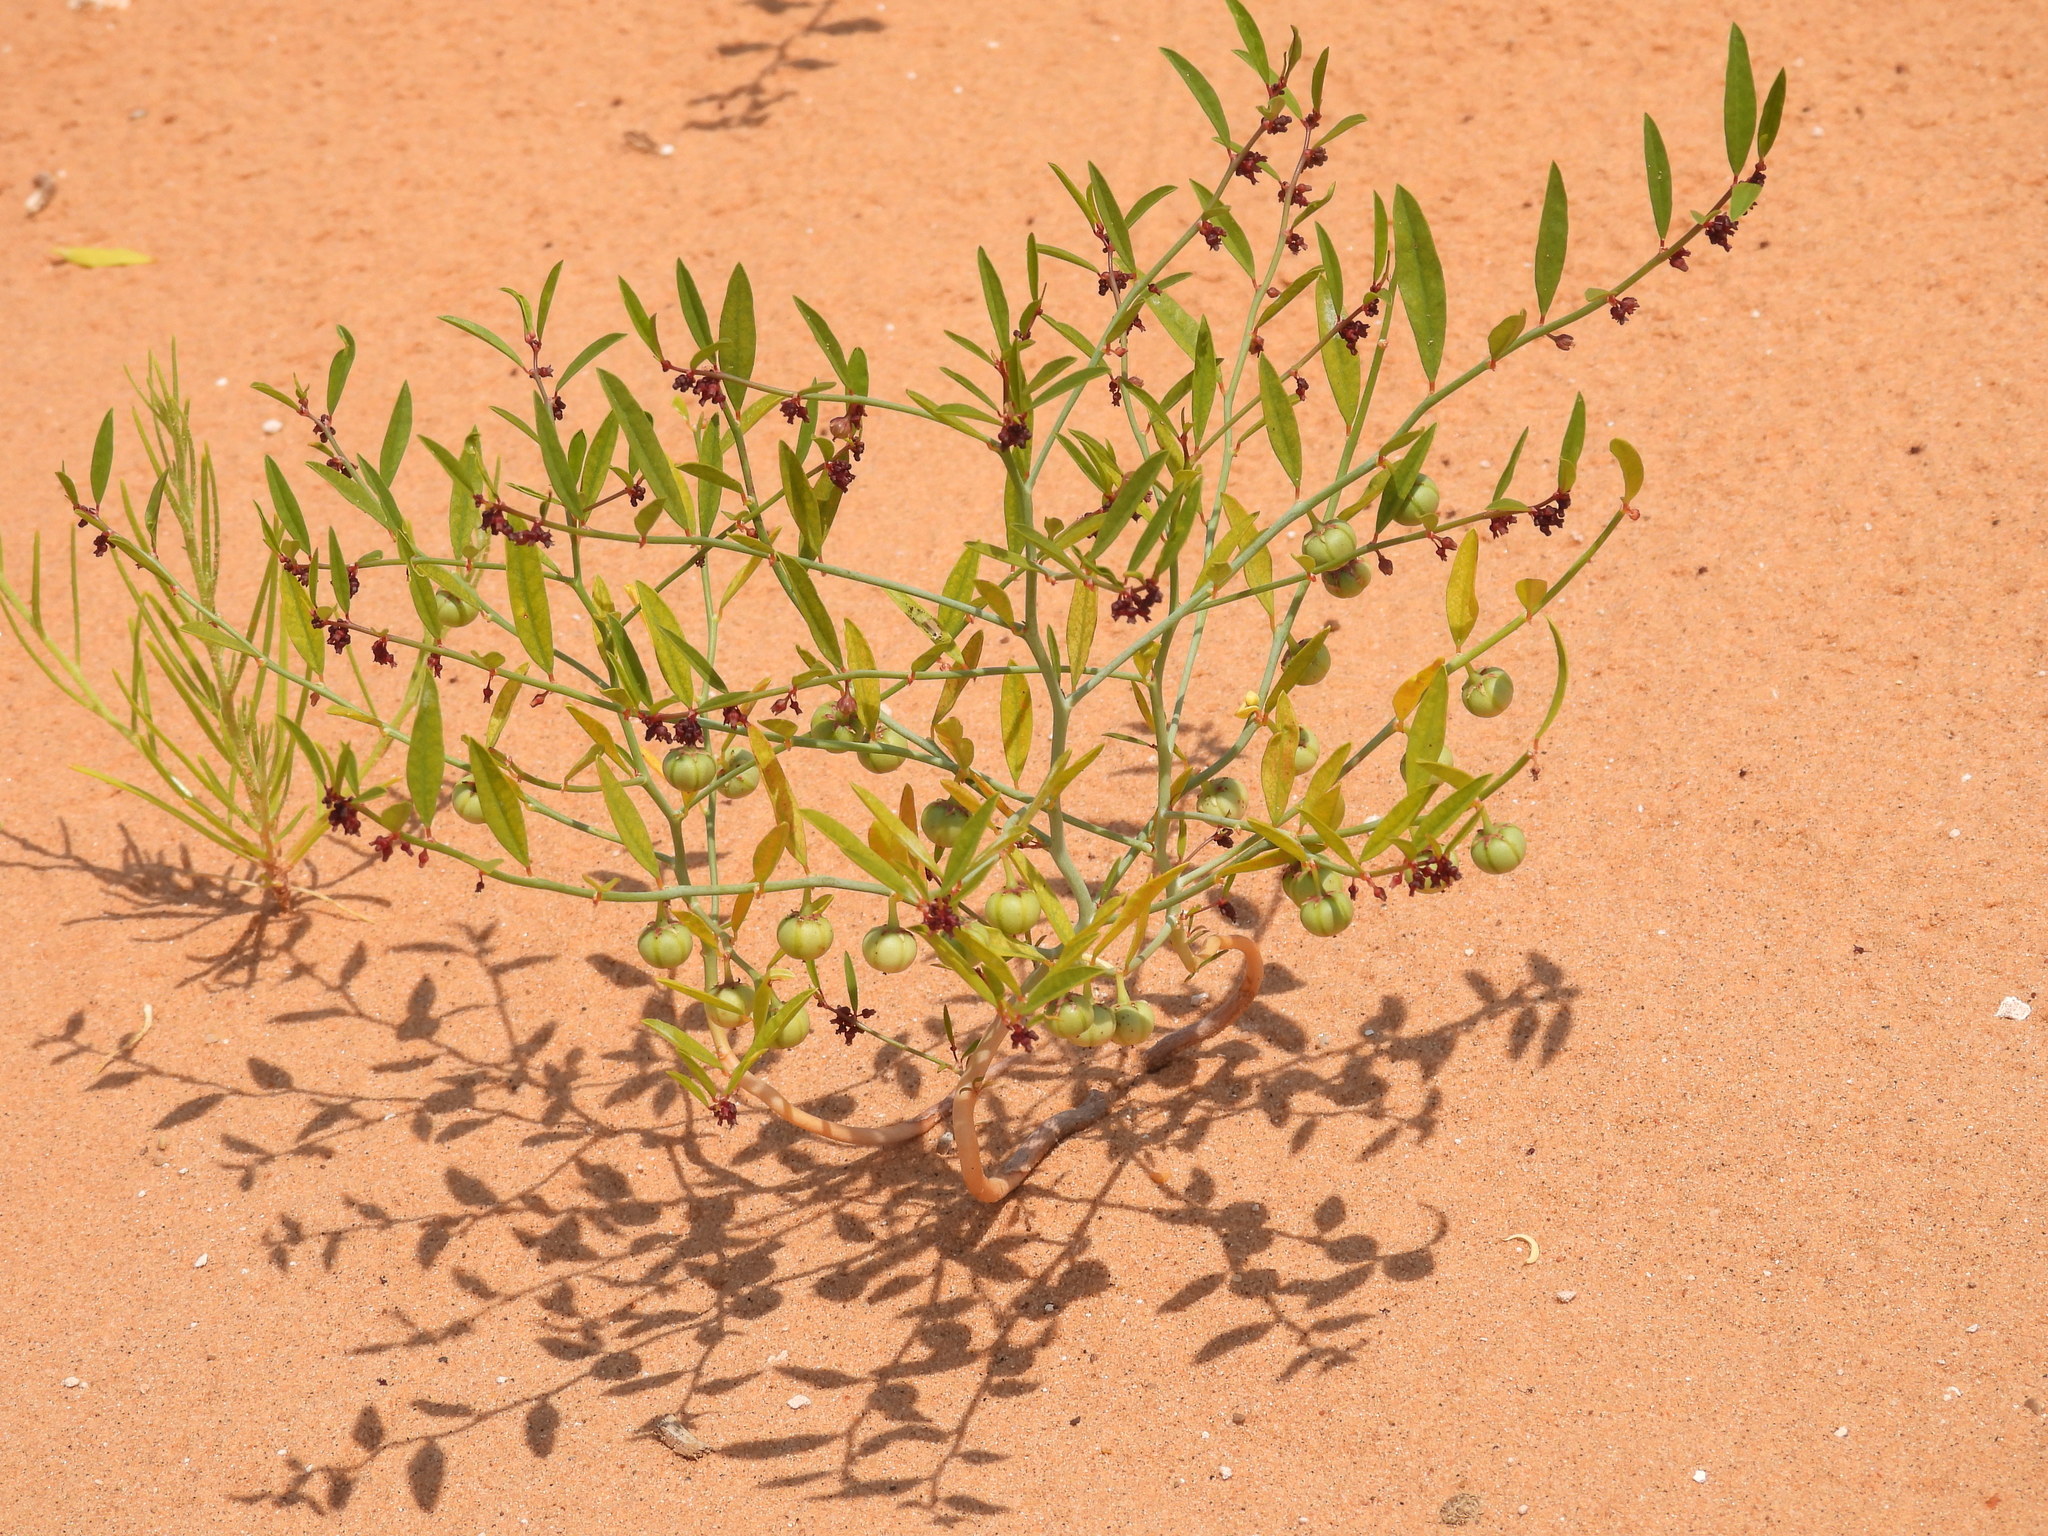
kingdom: Plantae
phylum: Tracheophyta
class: Magnoliopsida
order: Malpighiales
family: Phyllanthaceae
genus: Phyllanthus
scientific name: Phyllanthus warnockii
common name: Sand reverchonia
